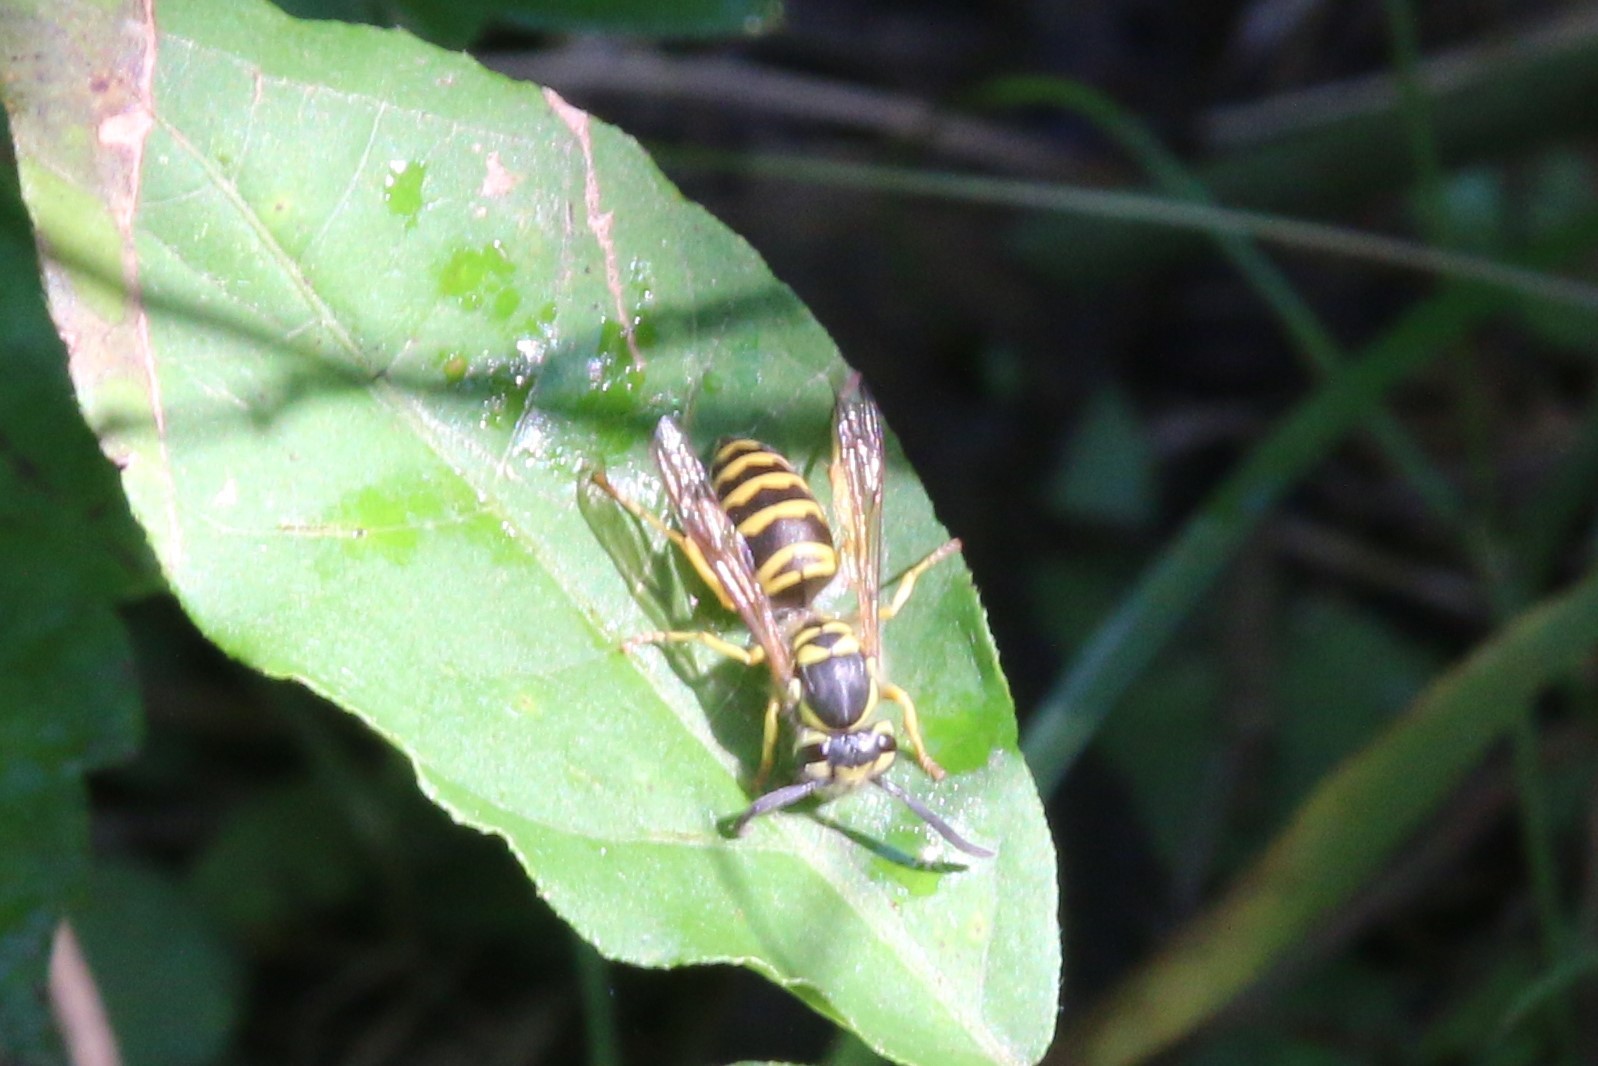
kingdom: Animalia
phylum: Arthropoda
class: Insecta
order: Hymenoptera
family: Vespidae
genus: Vespula
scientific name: Vespula maculifrons
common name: Eastern yellowjacket
